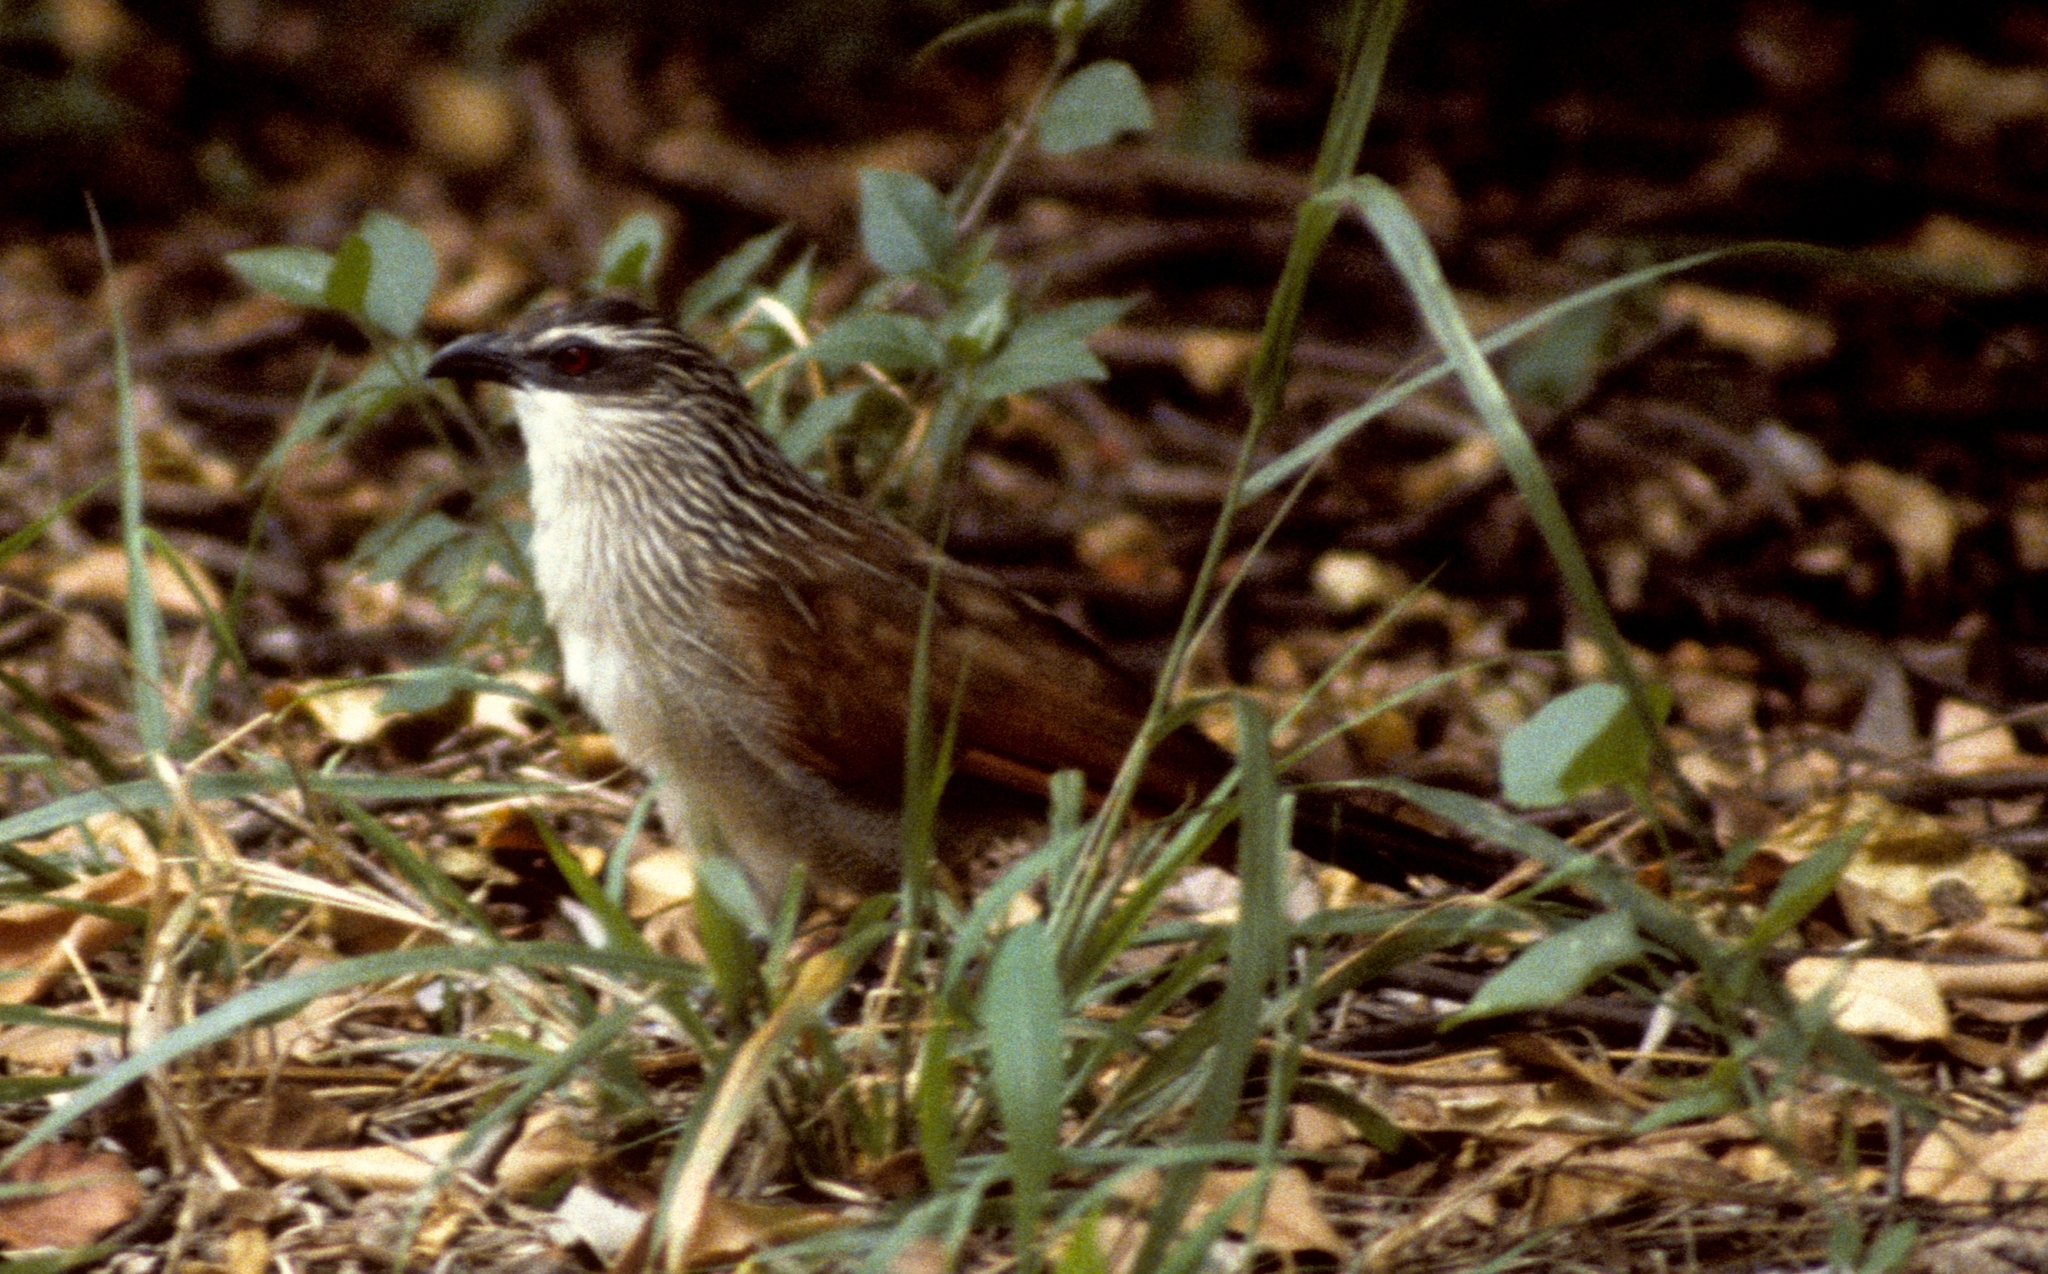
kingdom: Animalia
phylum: Chordata
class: Aves
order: Cuculiformes
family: Cuculidae
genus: Centropus
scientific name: Centropus superciliosus
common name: White-browed coucal
